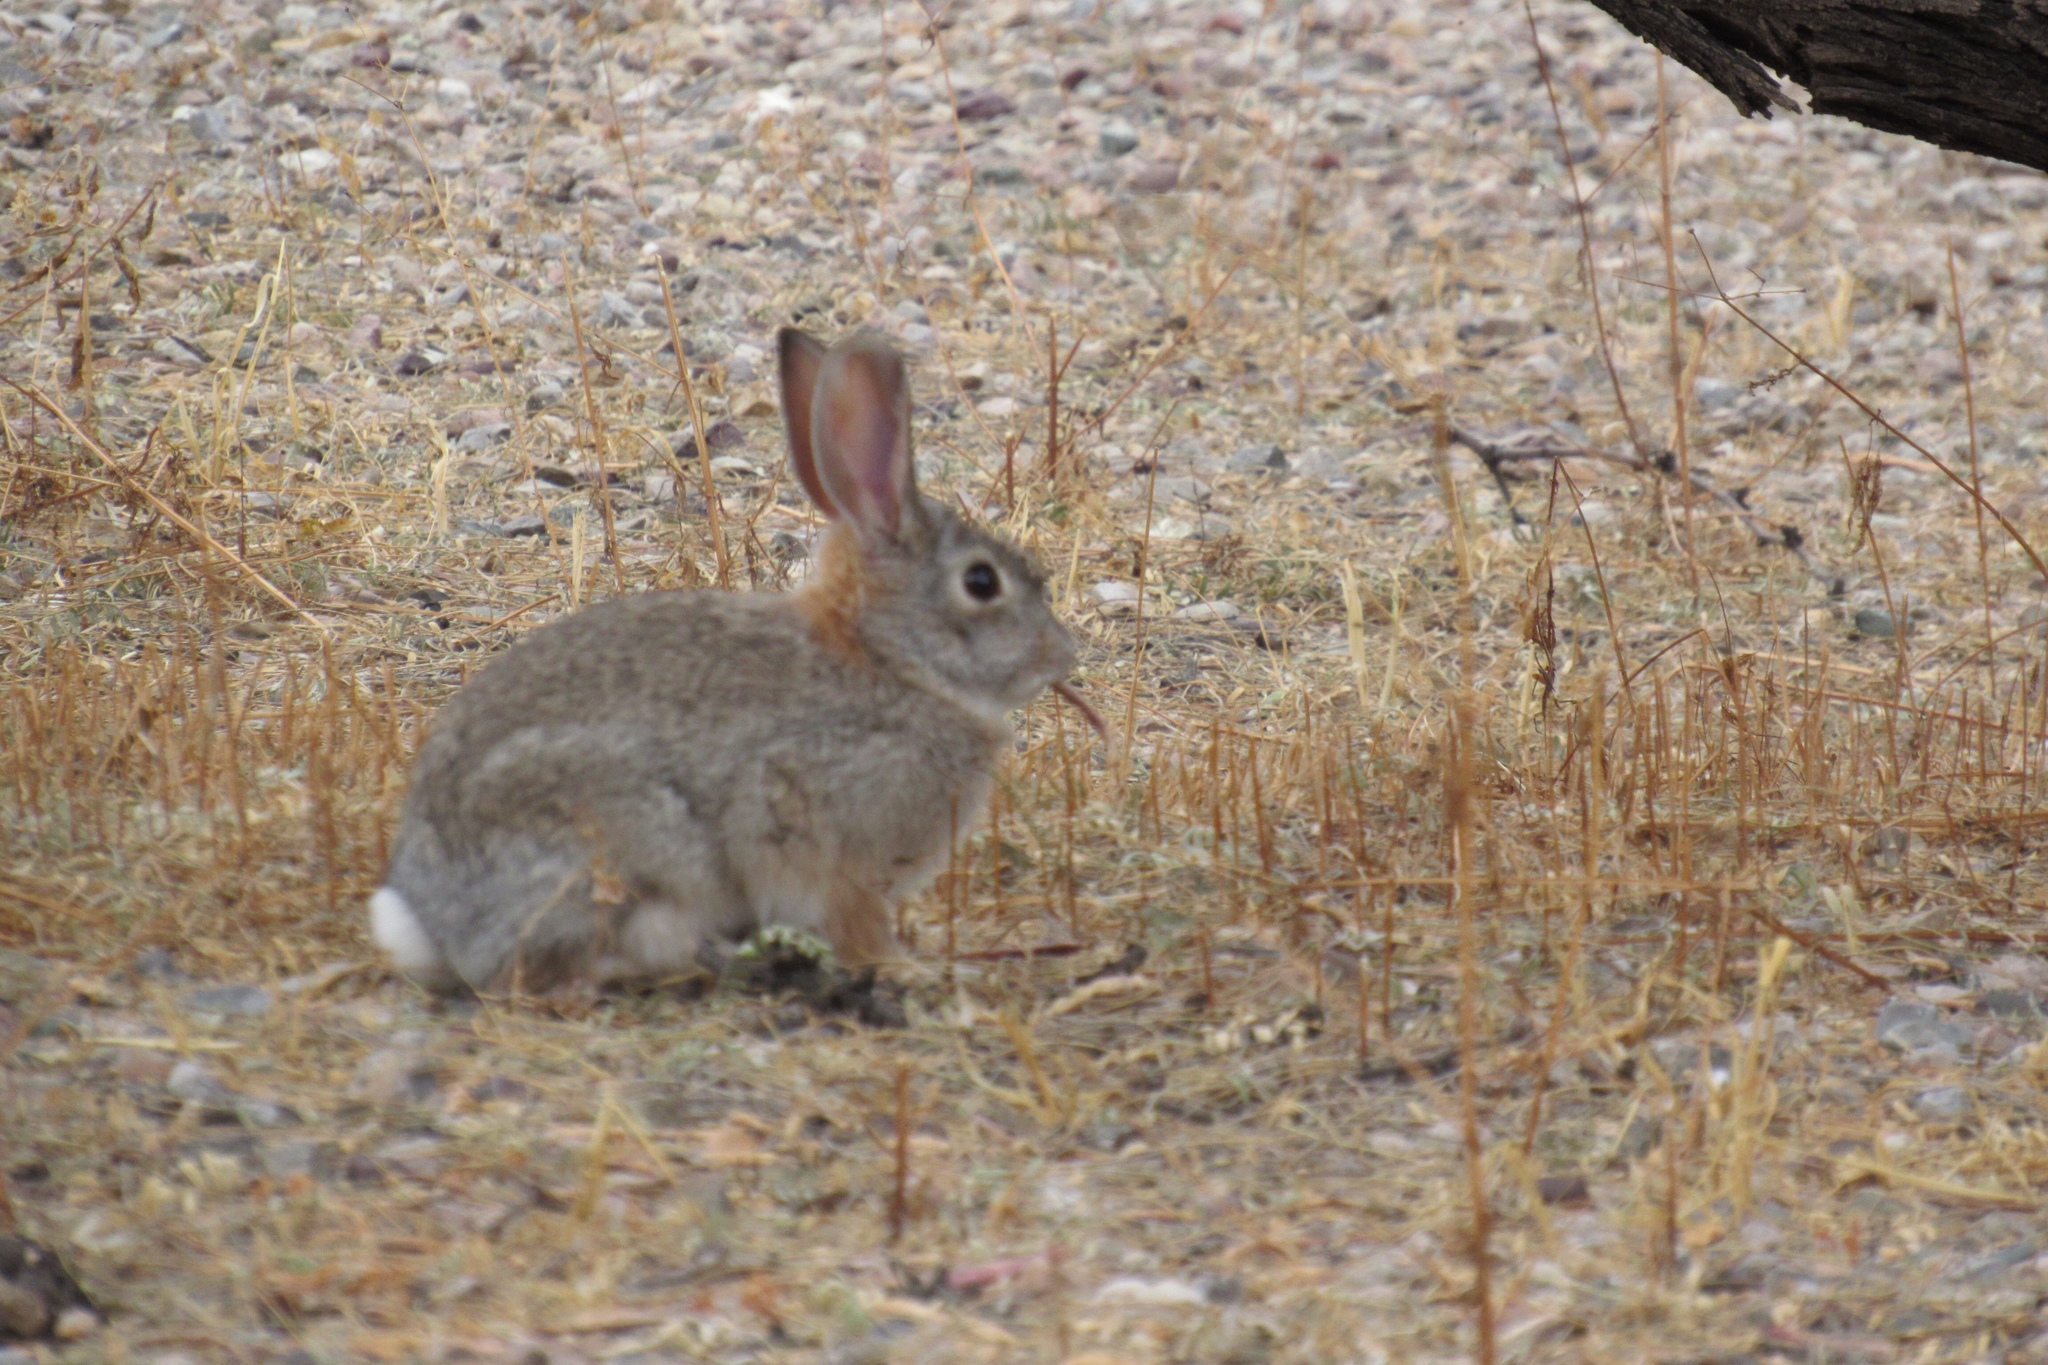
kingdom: Animalia
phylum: Chordata
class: Mammalia
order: Lagomorpha
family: Leporidae
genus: Sylvilagus
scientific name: Sylvilagus audubonii
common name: Desert cottontail
